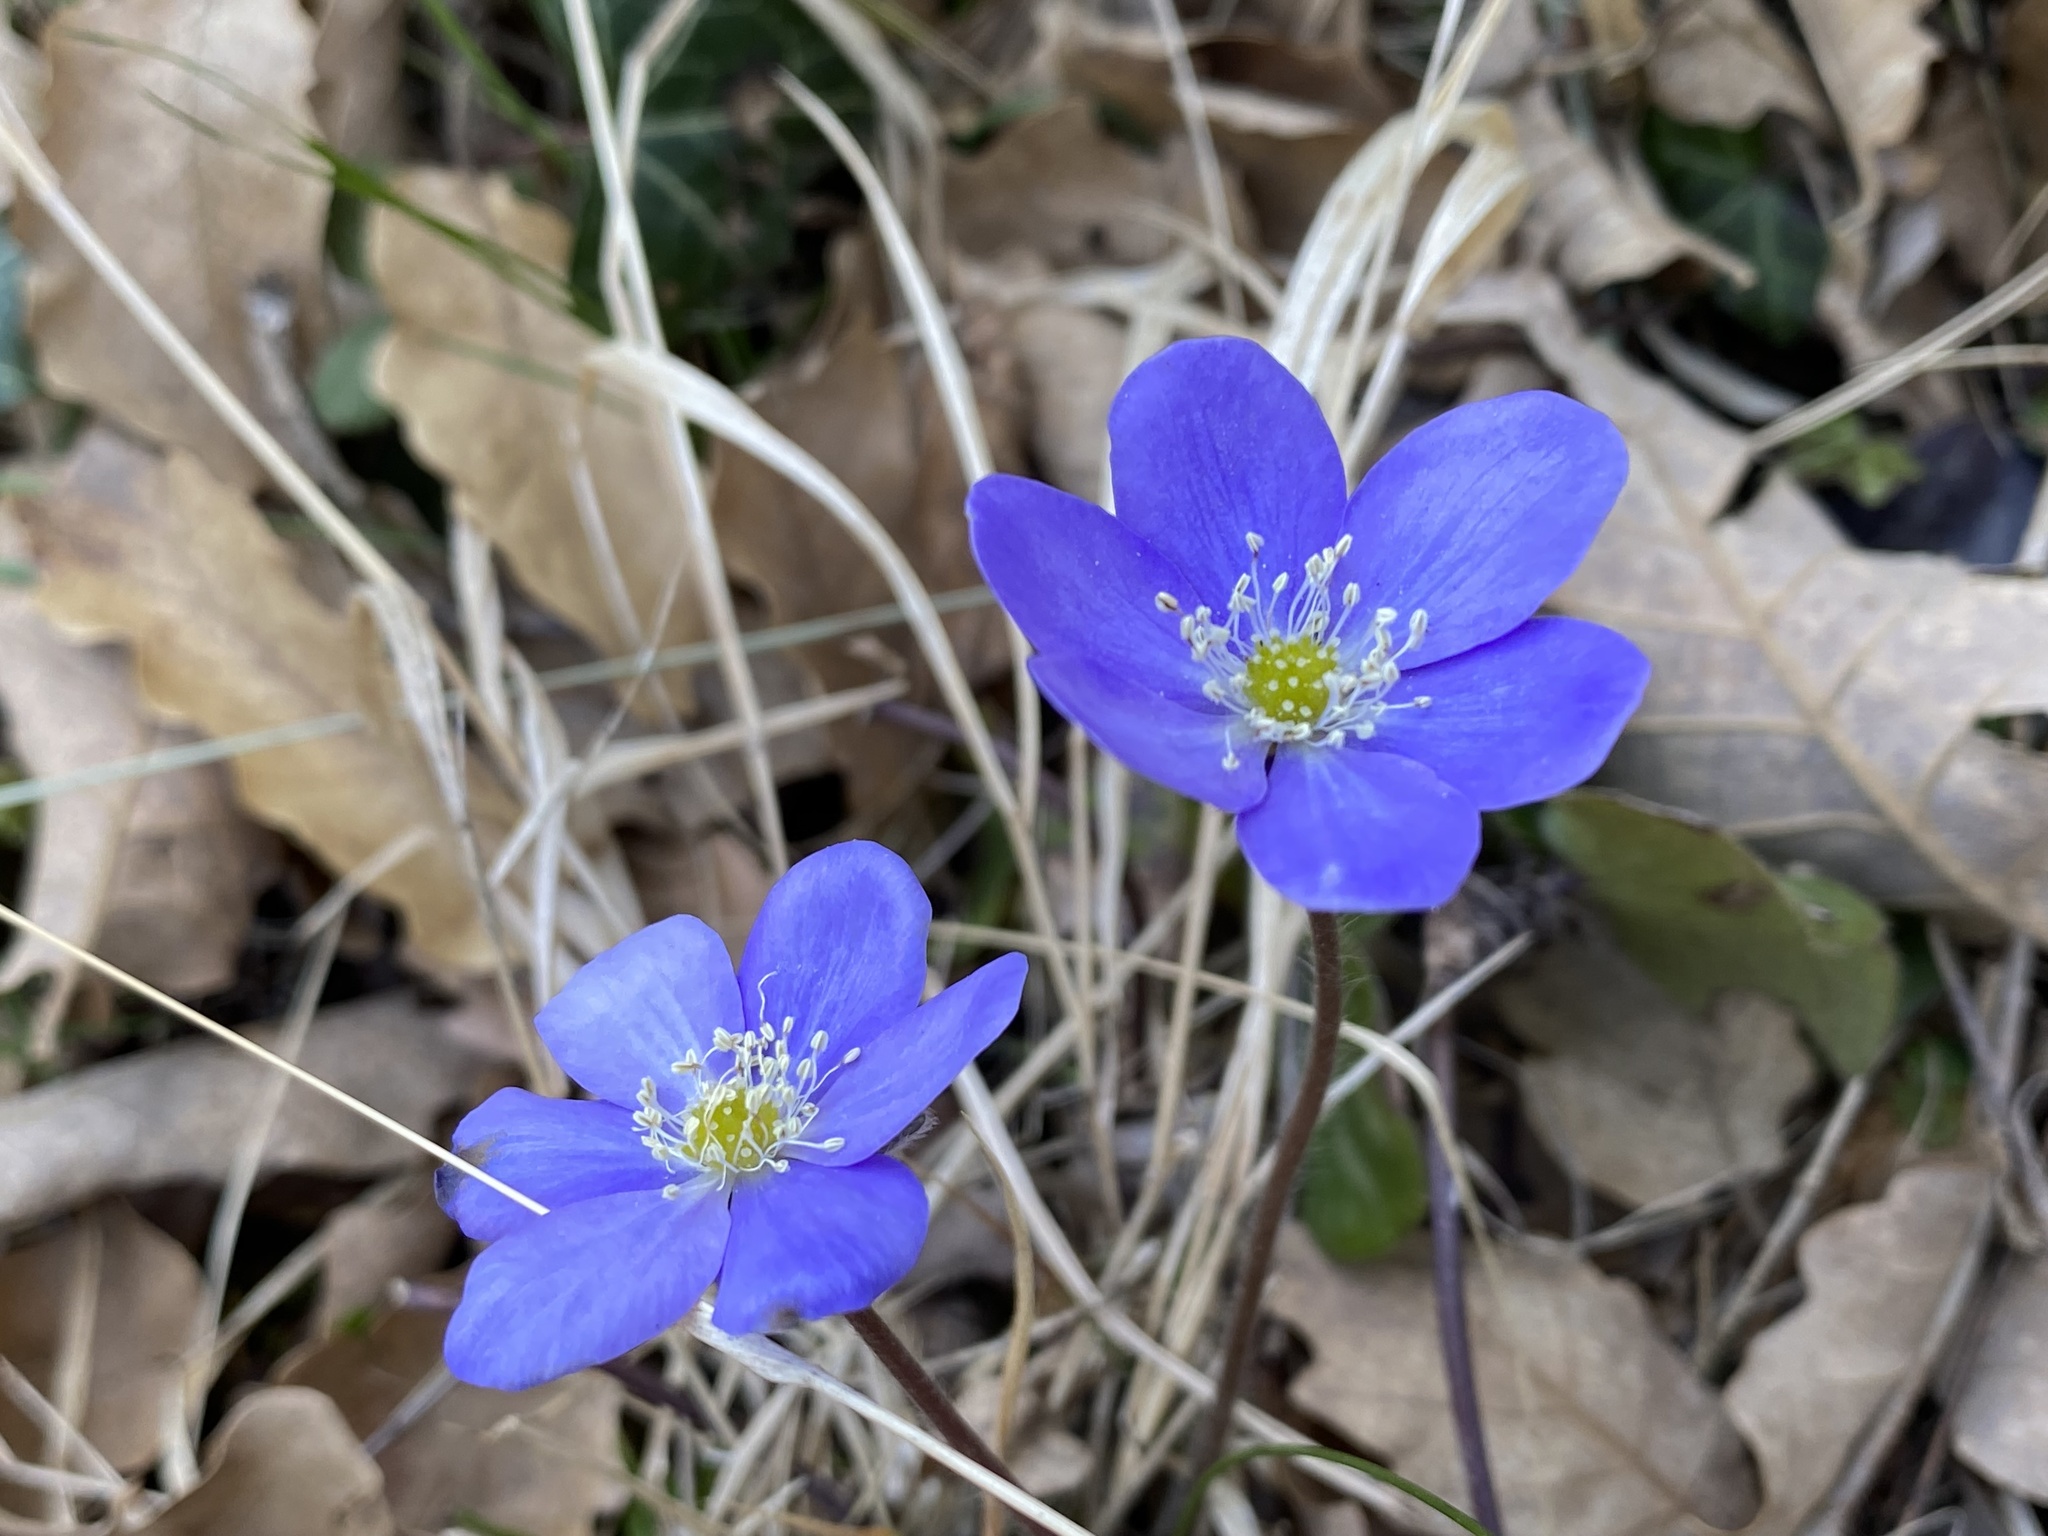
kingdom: Plantae
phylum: Tracheophyta
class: Magnoliopsida
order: Ranunculales
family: Ranunculaceae
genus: Hepatica
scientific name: Hepatica nobilis
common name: Liverleaf
